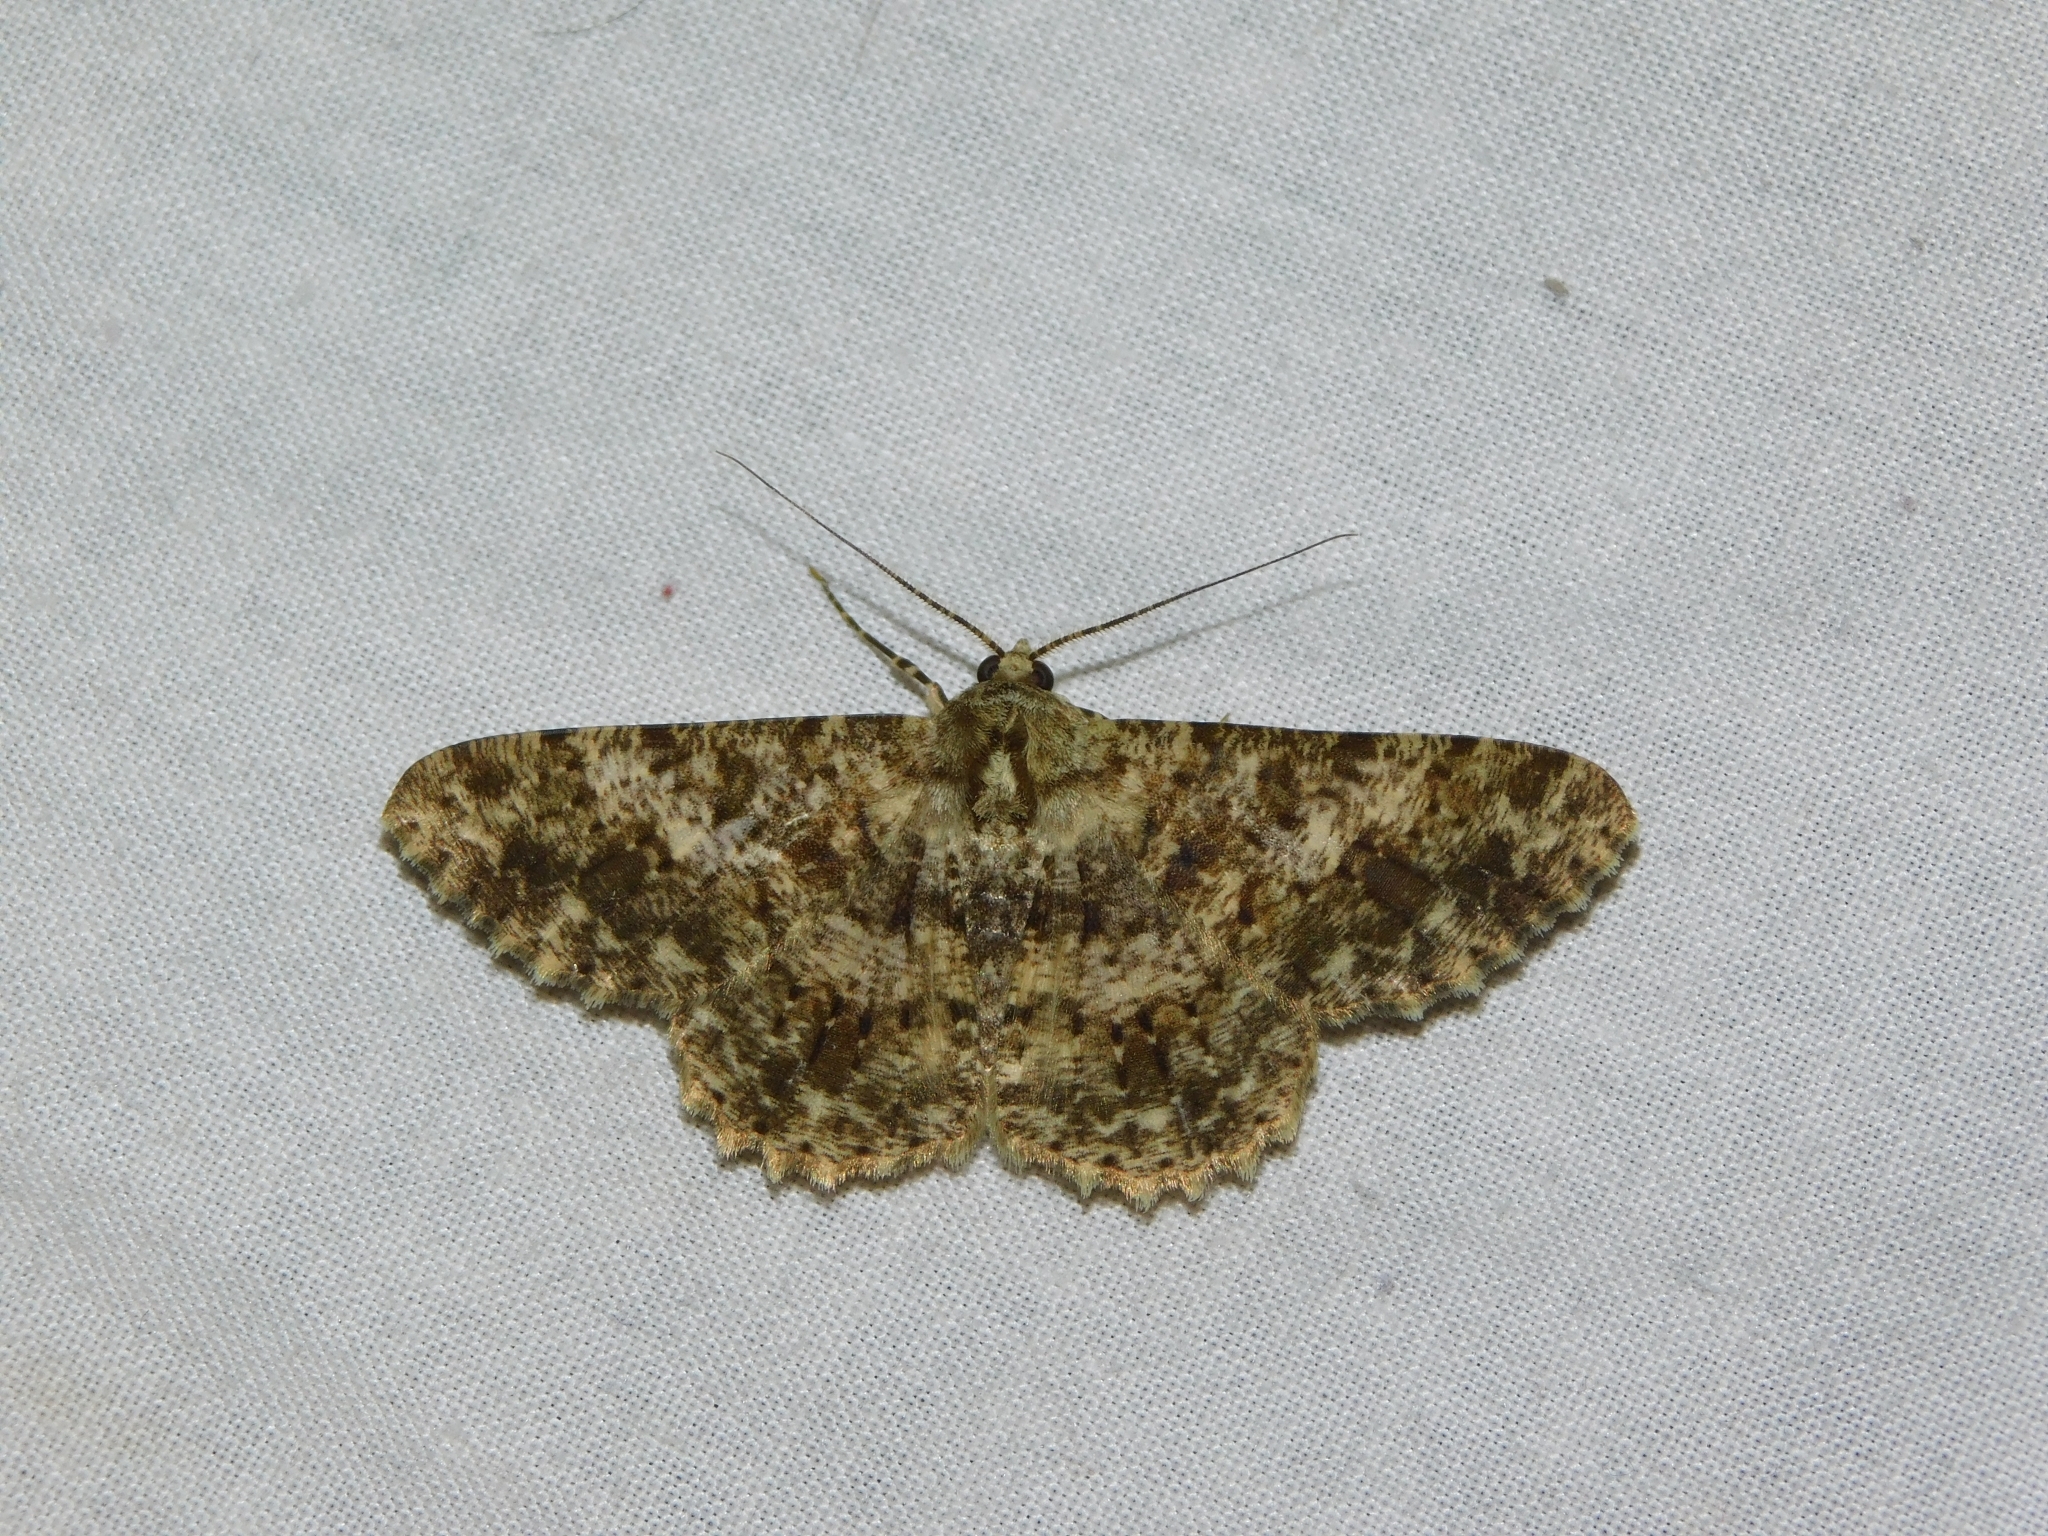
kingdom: Animalia
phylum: Arthropoda
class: Insecta
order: Lepidoptera
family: Geometridae
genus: Racotis
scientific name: Racotis boarmiaria
